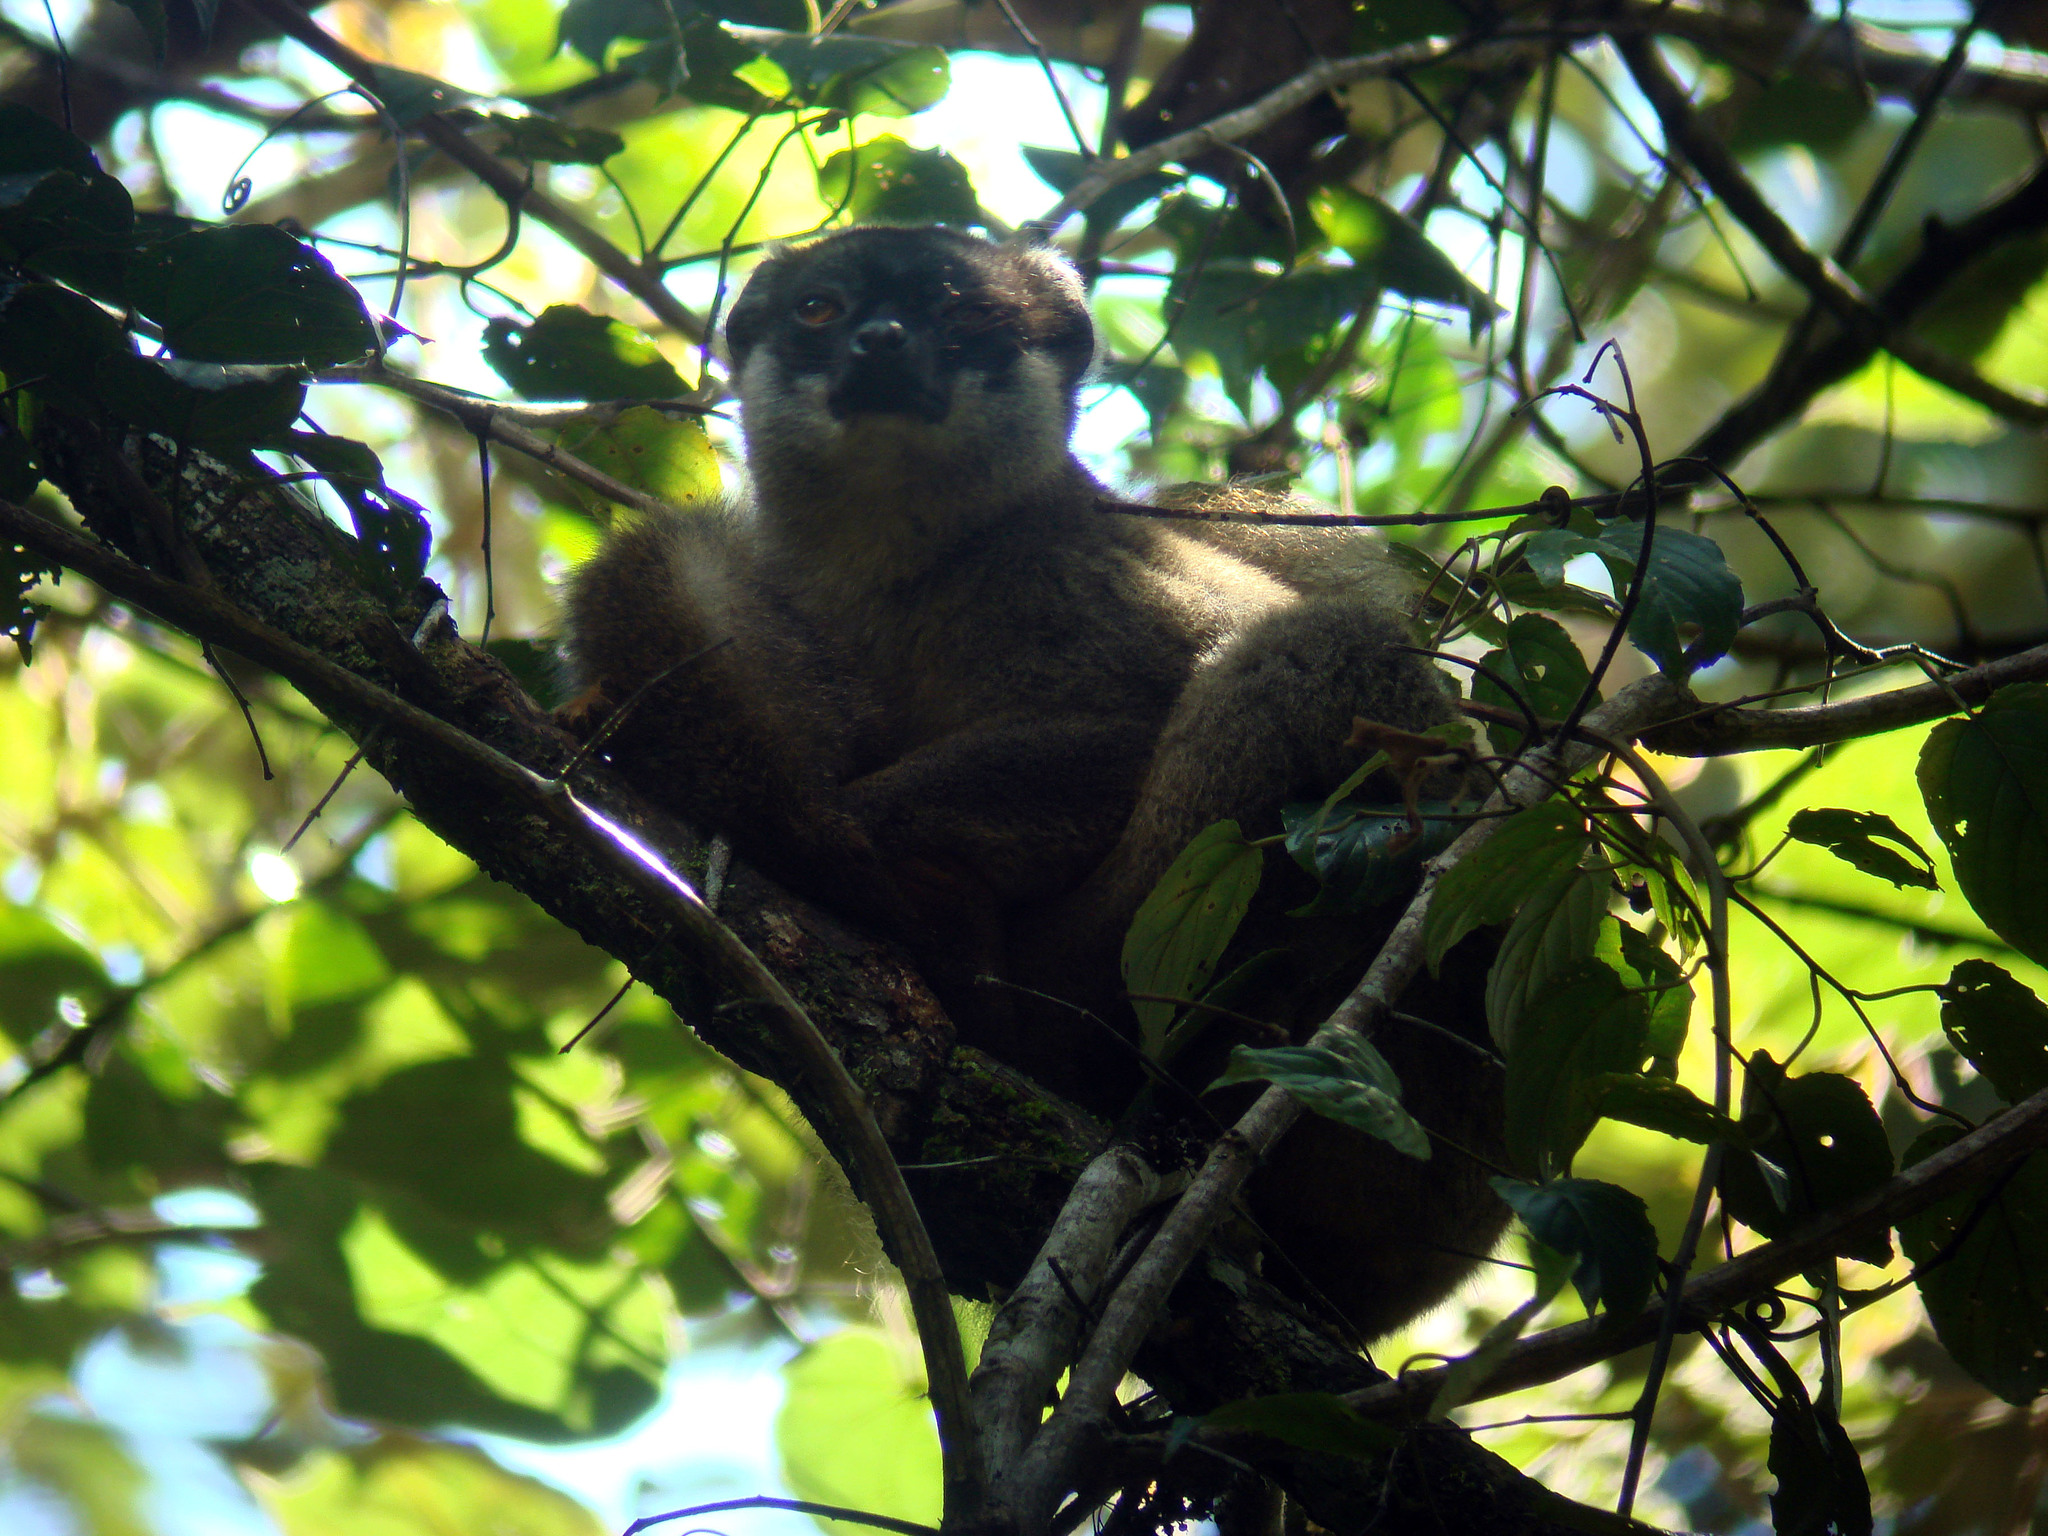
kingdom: Animalia
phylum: Chordata
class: Mammalia
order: Primates
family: Lemuridae
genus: Eulemur
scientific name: Eulemur fulvus
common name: Brown lemur
